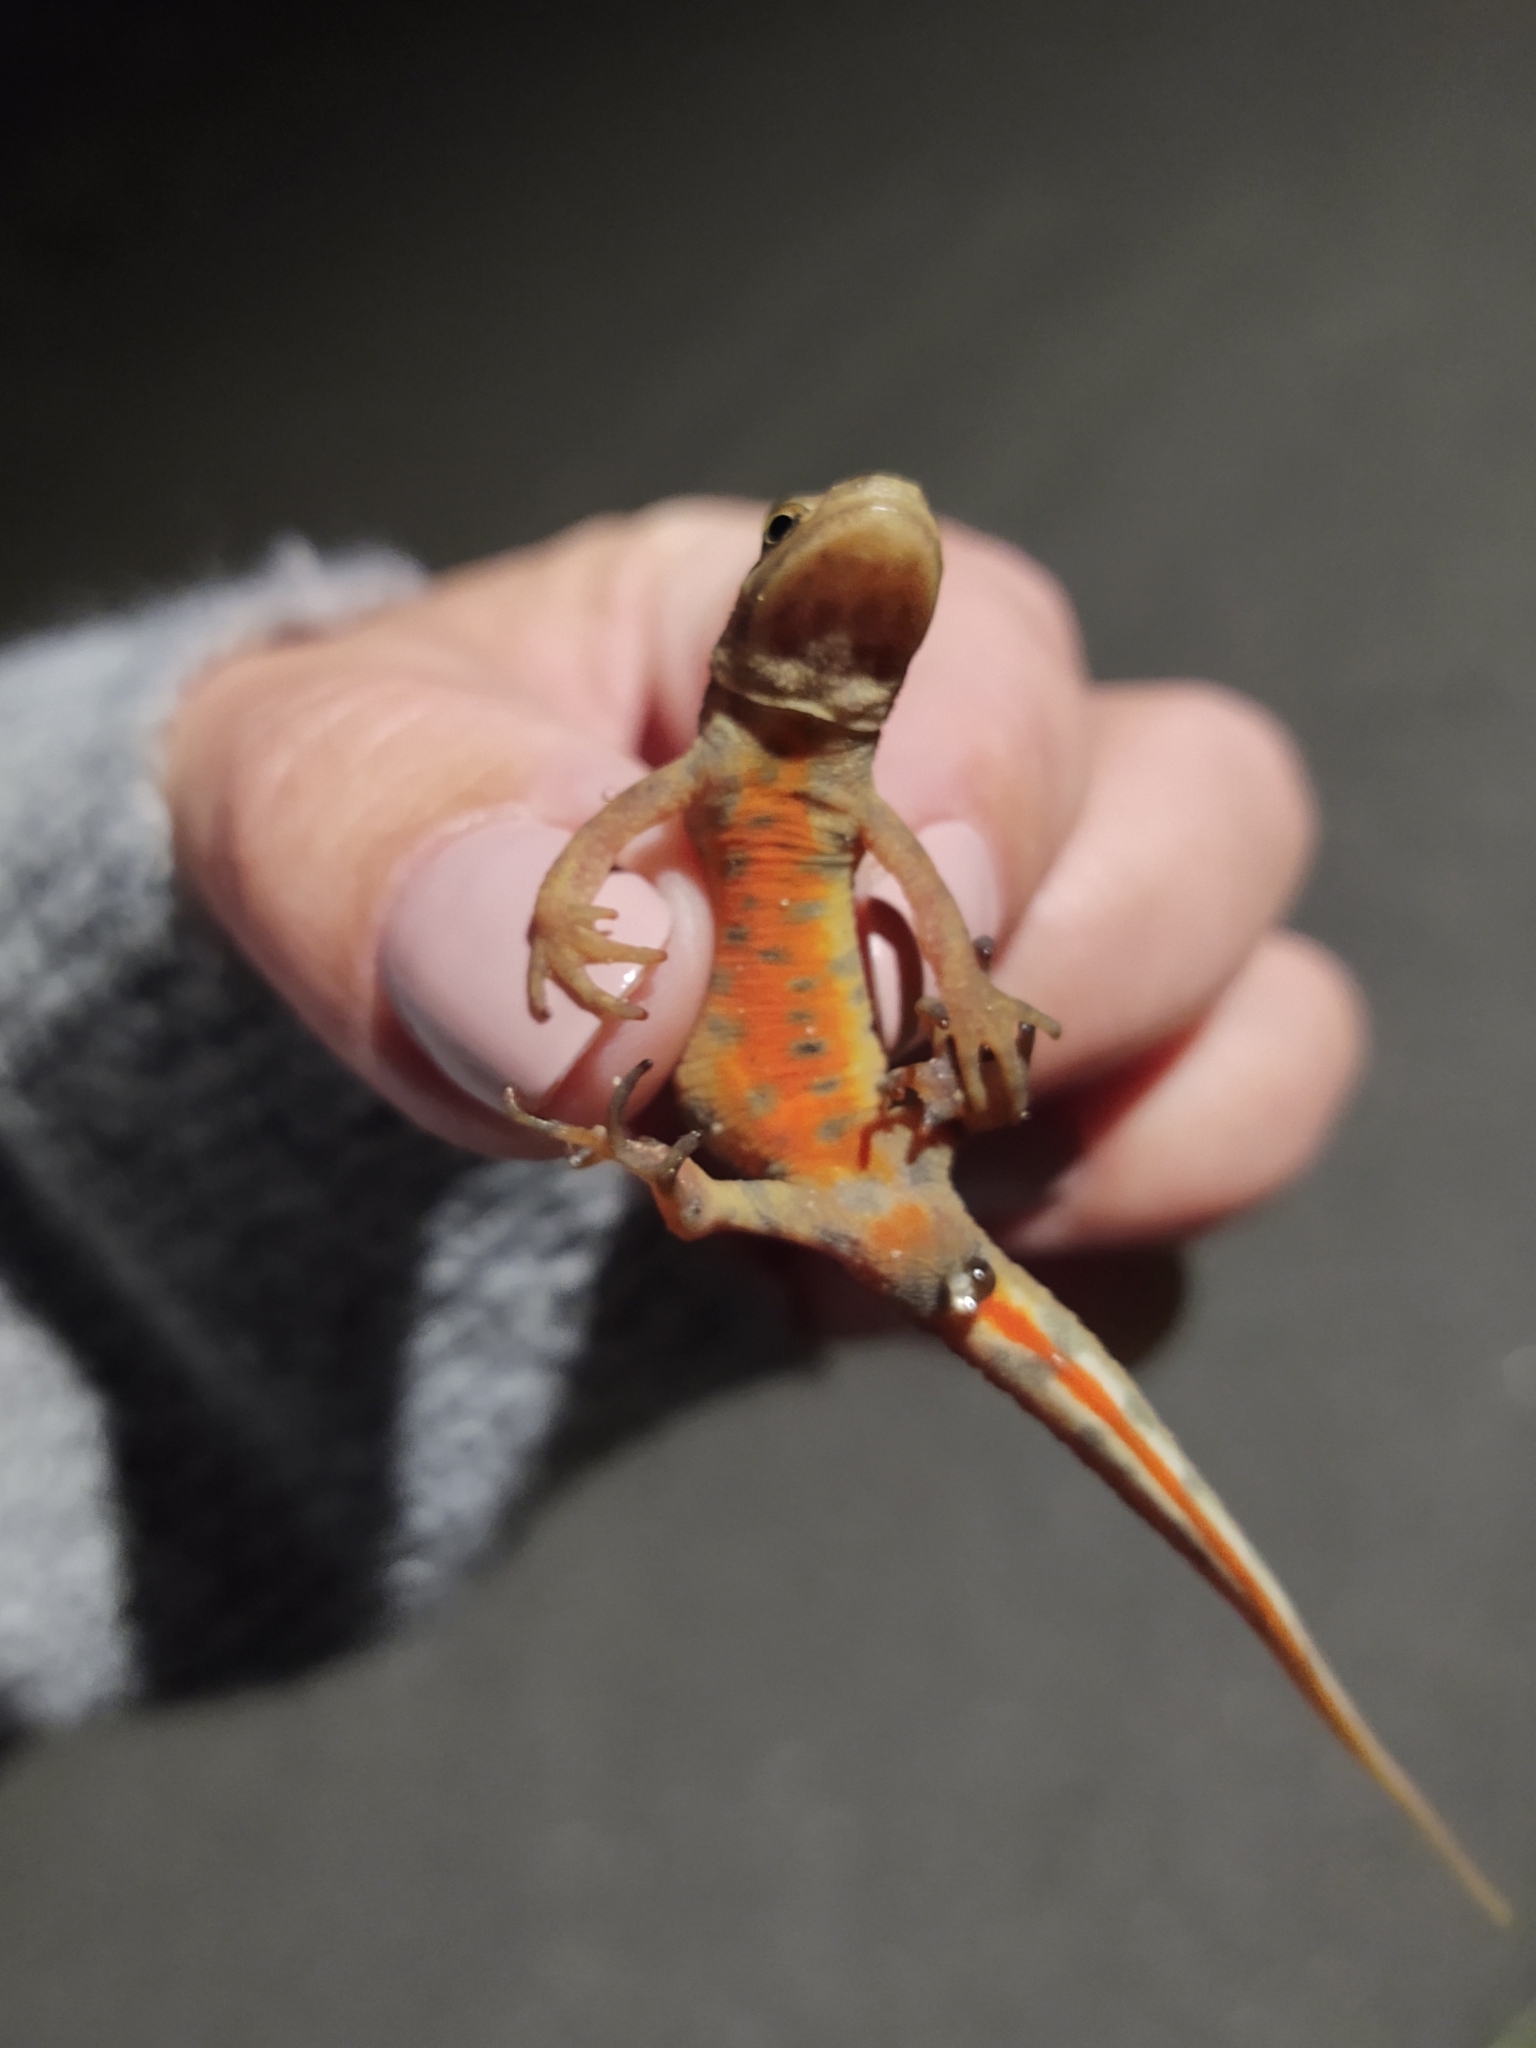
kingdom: Animalia
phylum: Chordata
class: Amphibia
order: Caudata
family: Salamandridae
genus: Lissotriton
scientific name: Lissotriton vulgaris
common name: Smooth newt
